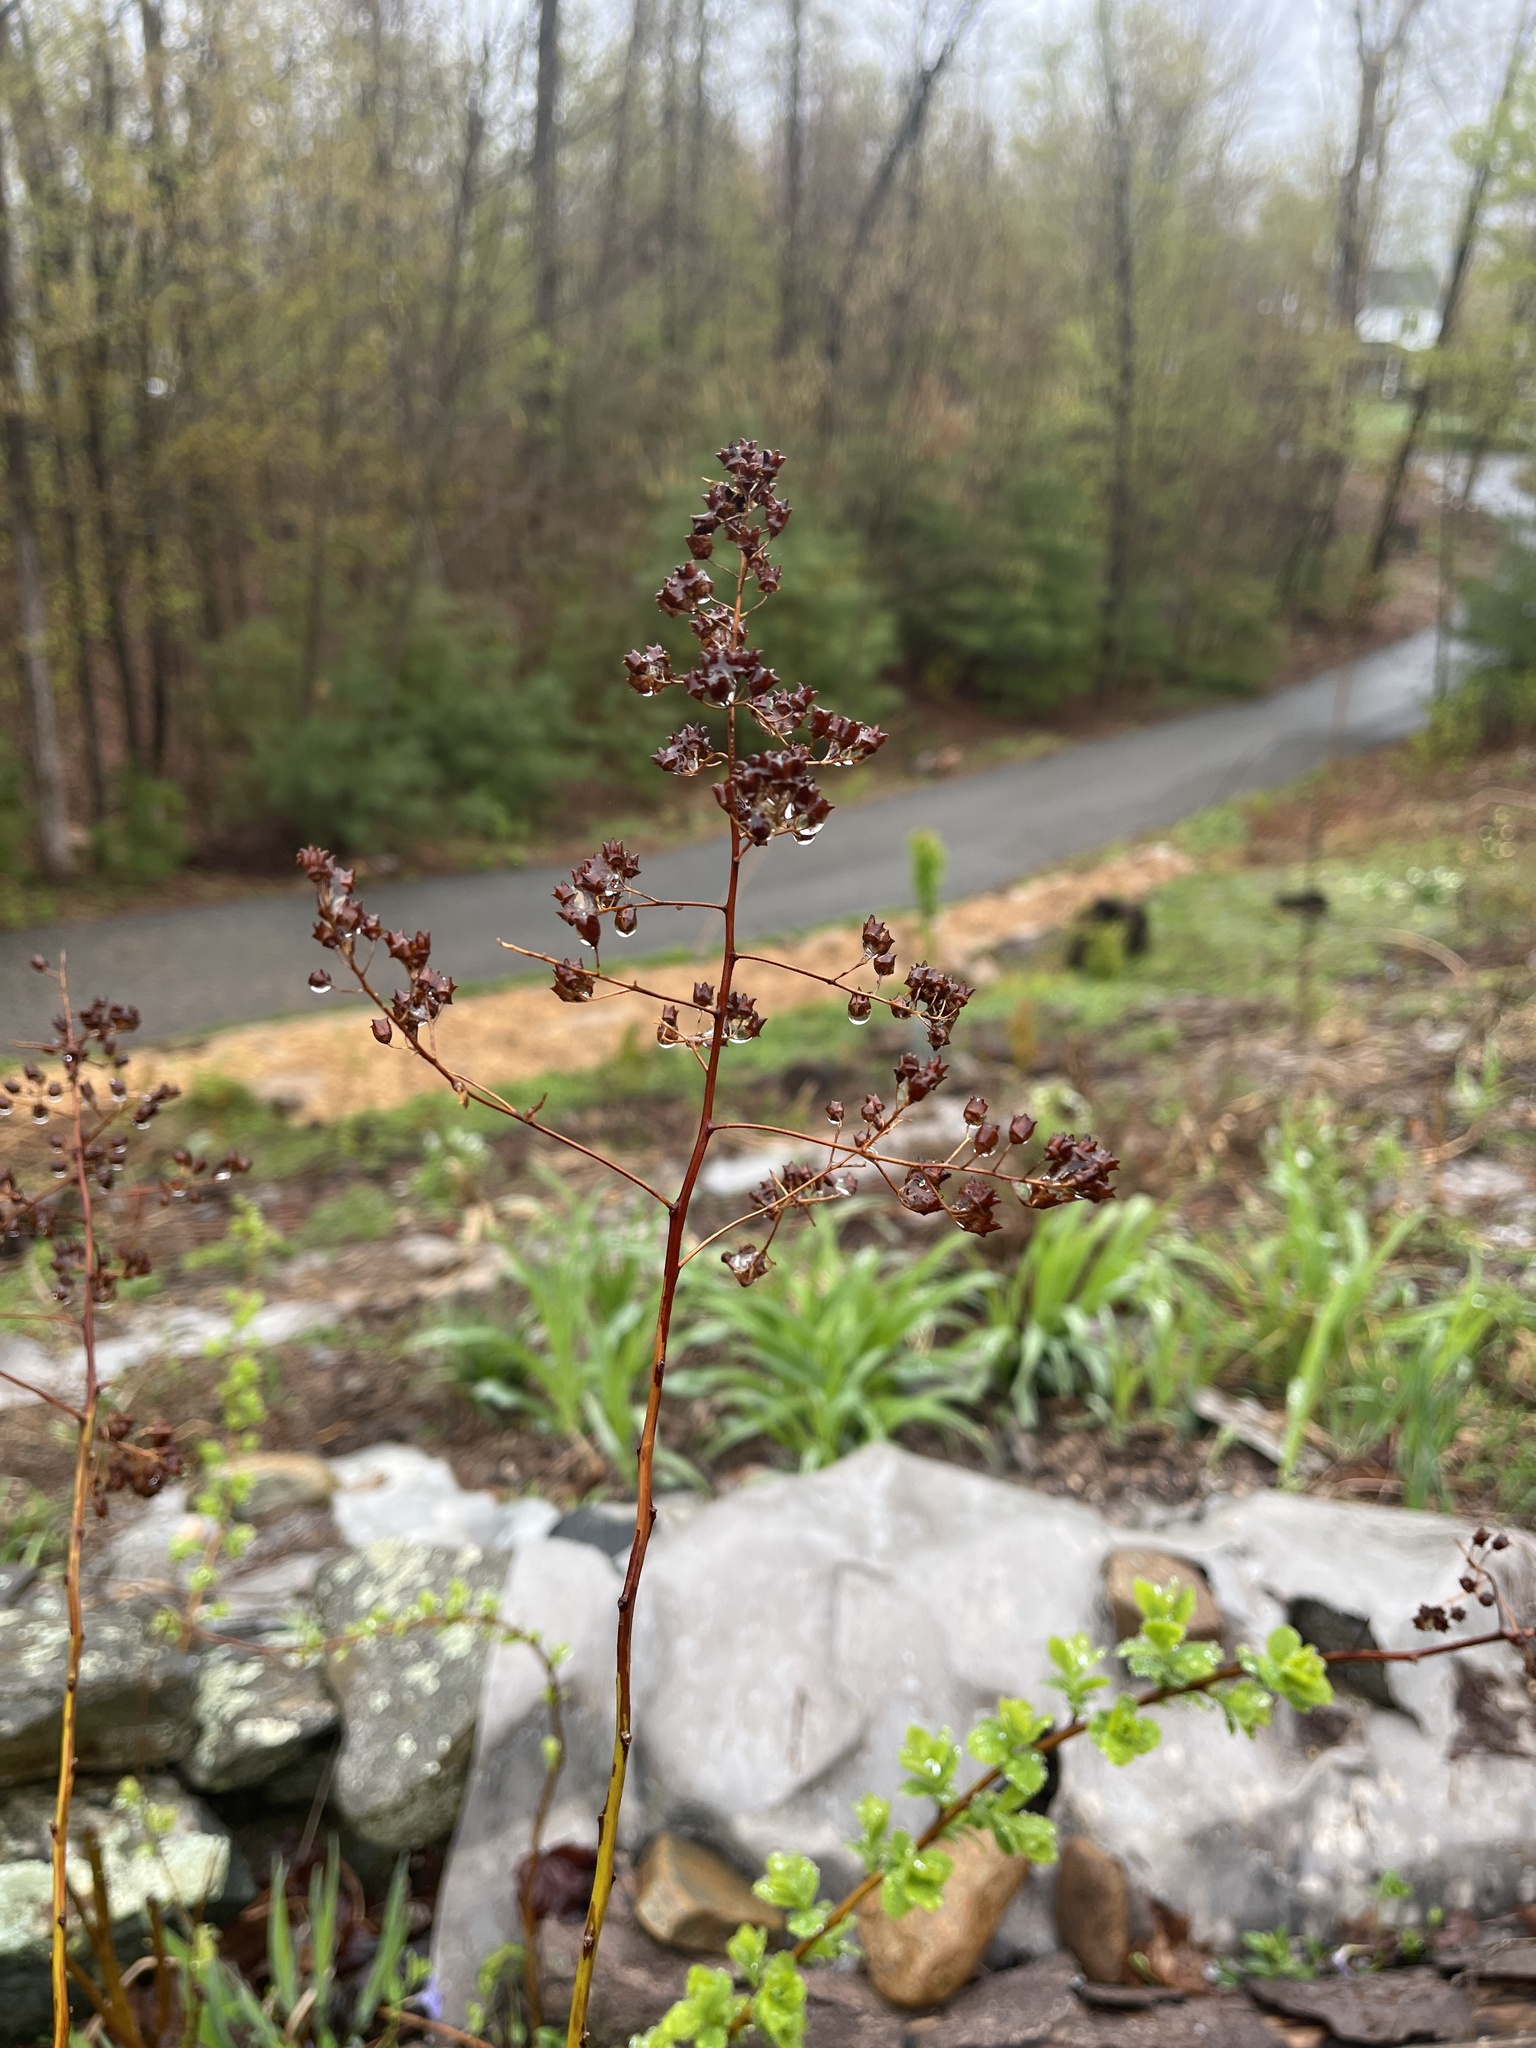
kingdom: Plantae
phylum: Tracheophyta
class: Magnoliopsida
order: Rosales
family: Rosaceae
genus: Spiraea
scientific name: Spiraea alba
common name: Pale bridewort
